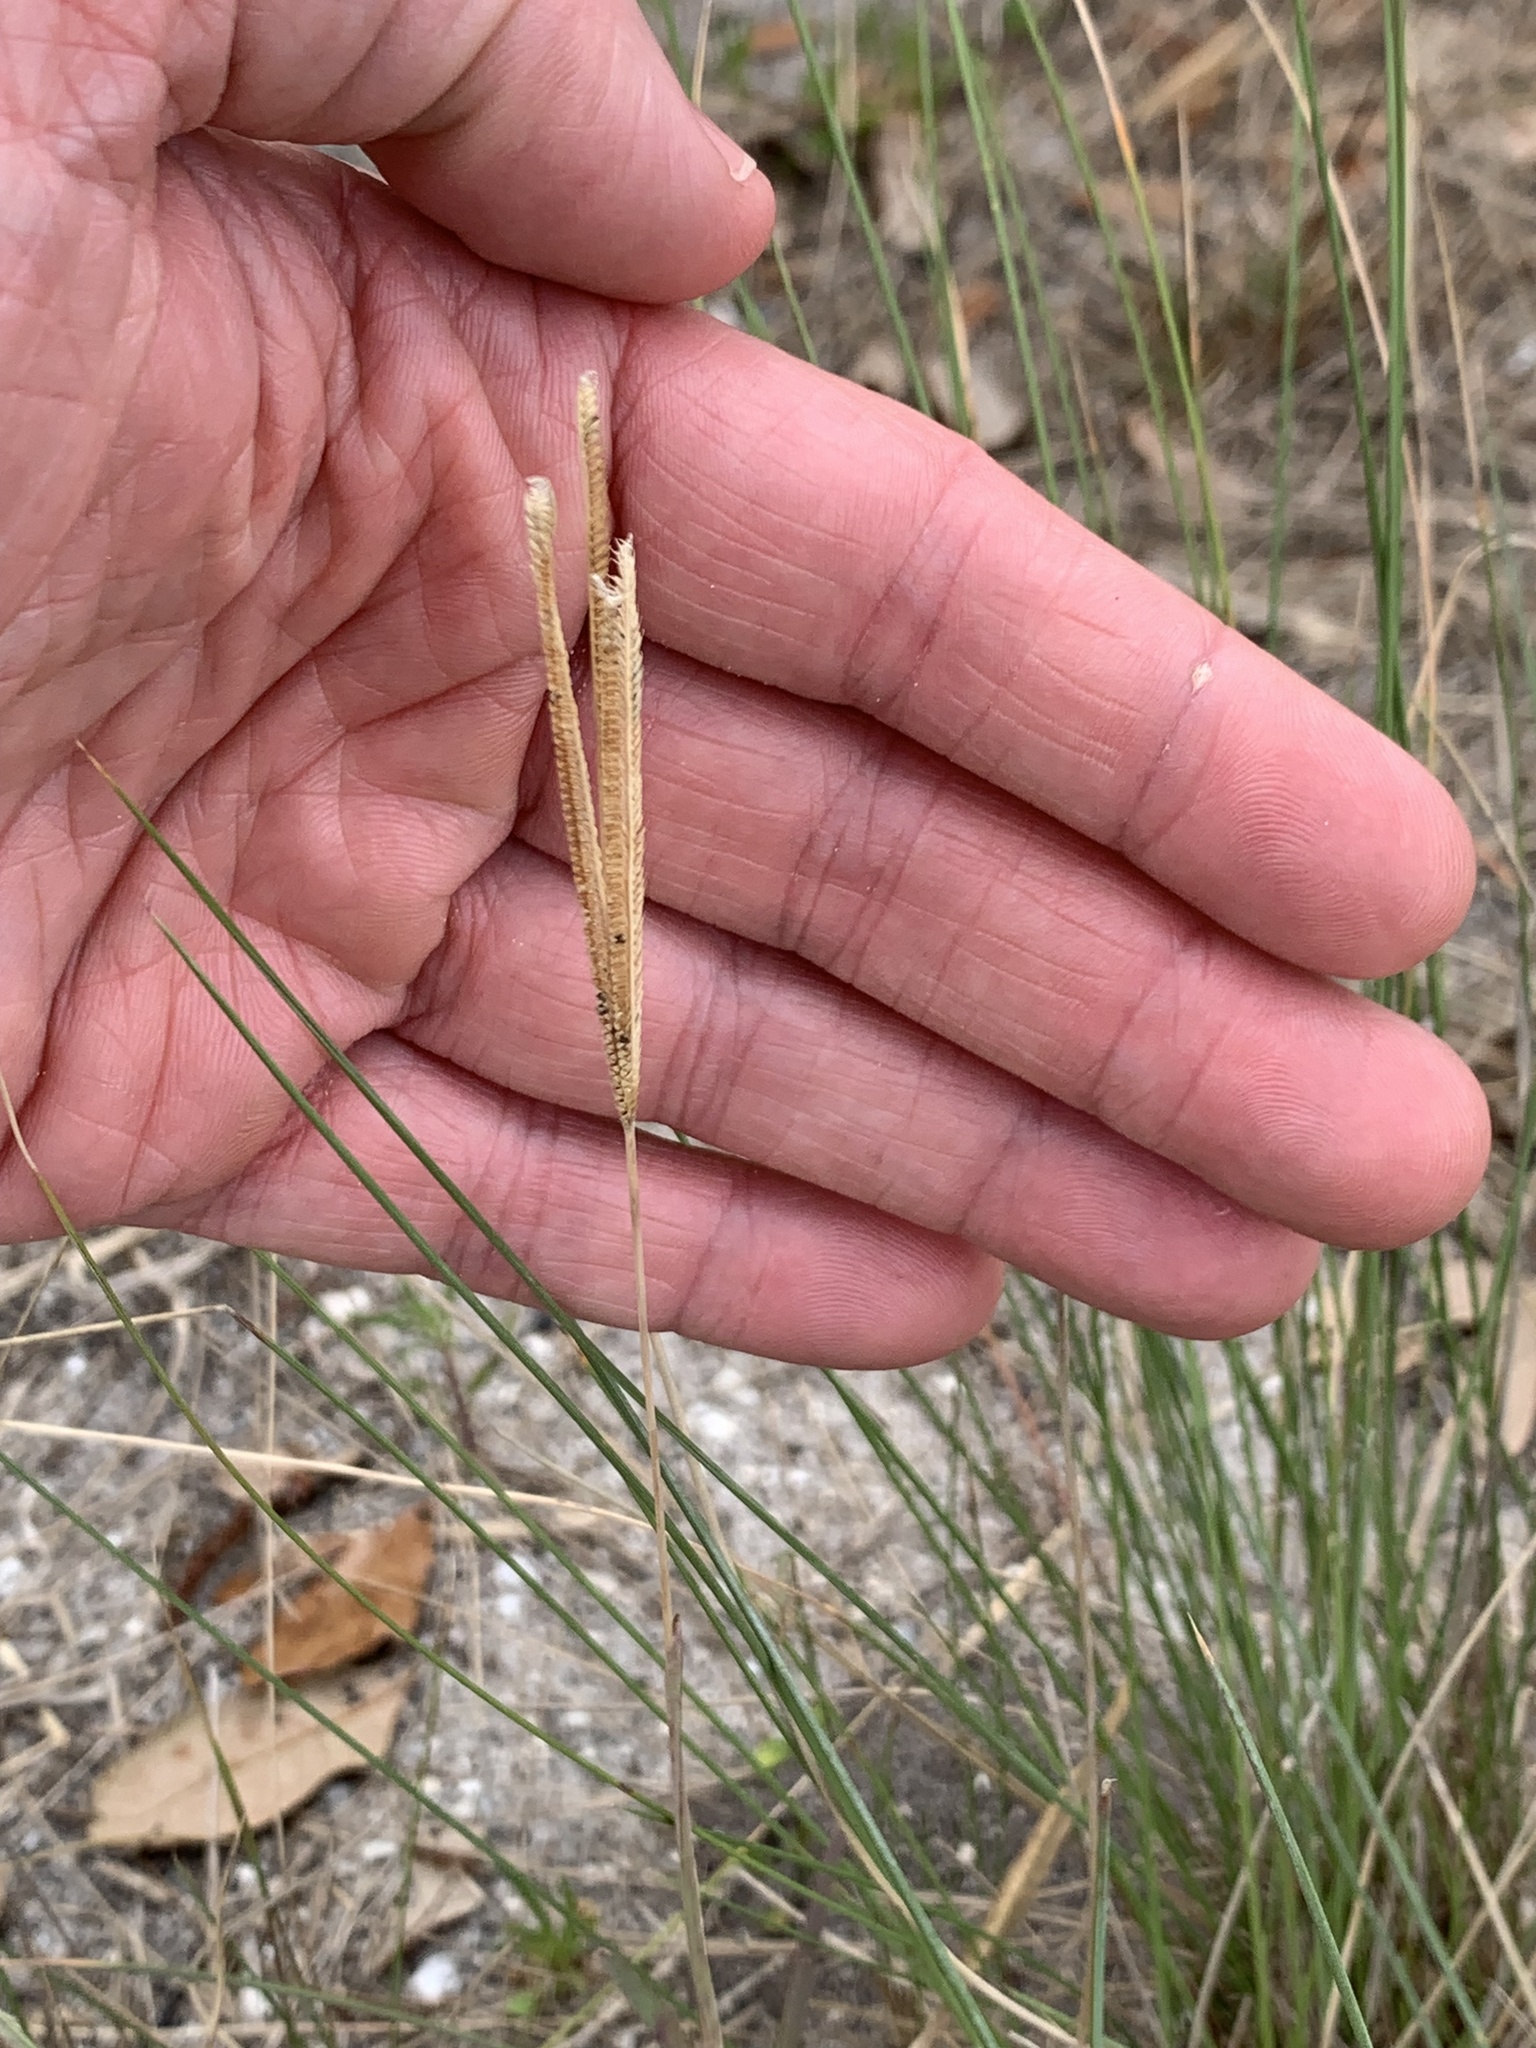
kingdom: Plantae
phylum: Tracheophyta
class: Liliopsida
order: Poales
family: Poaceae
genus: Eustachys
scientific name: Eustachys petraea
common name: Pinewoods fingergrass
